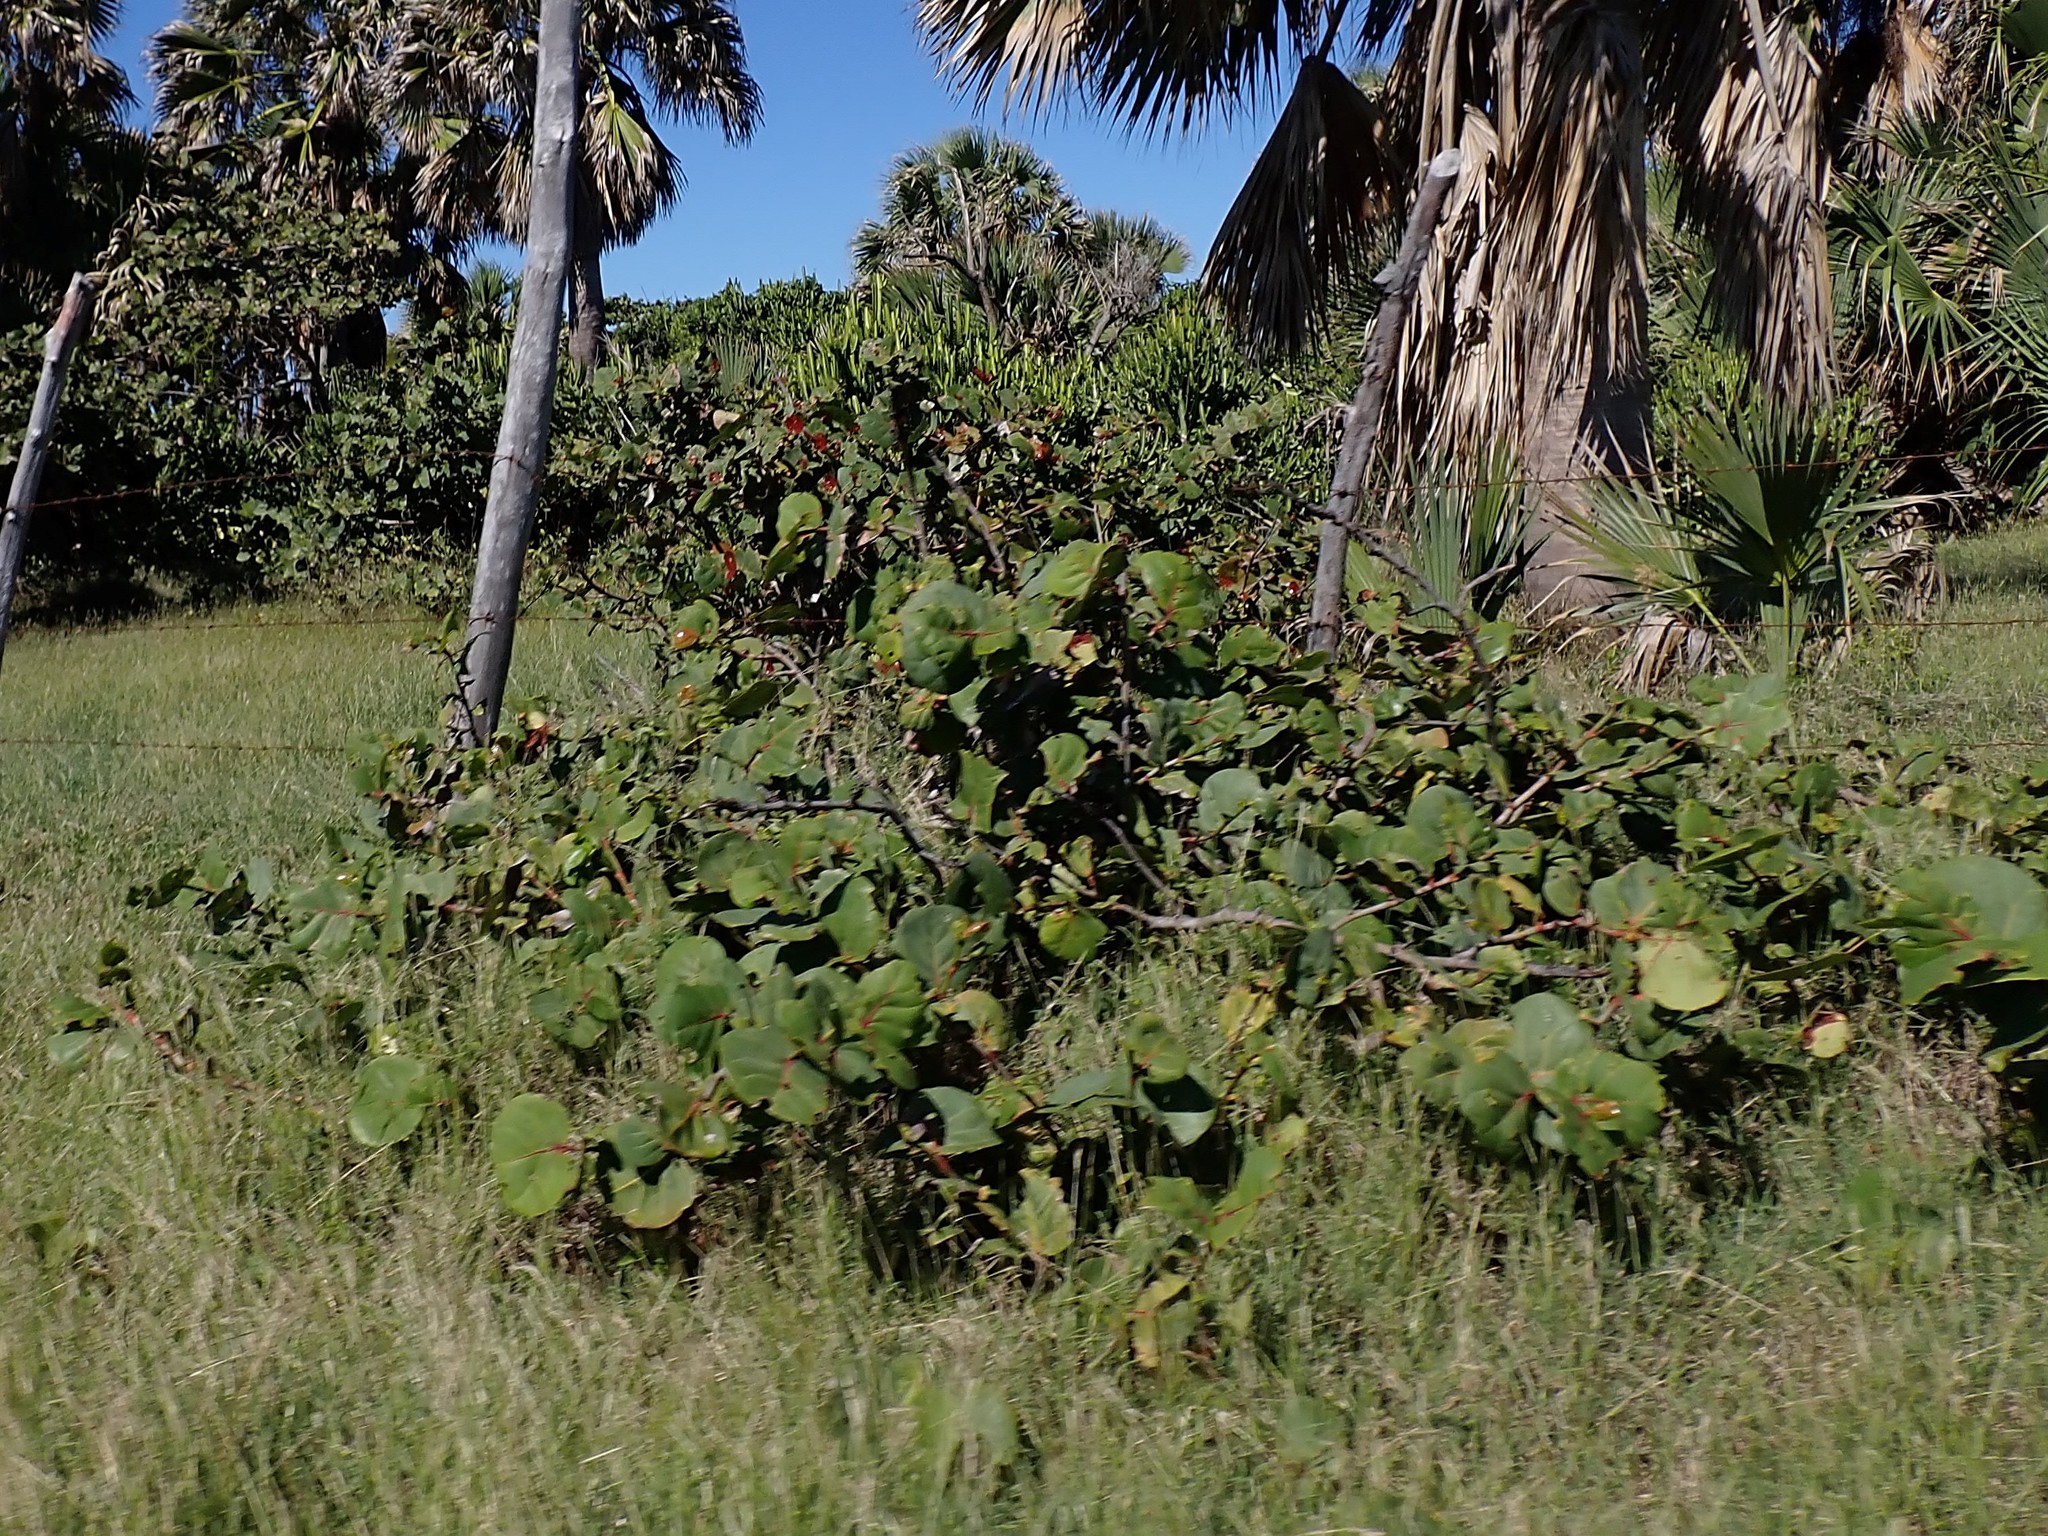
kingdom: Plantae
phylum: Tracheophyta
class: Magnoliopsida
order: Caryophyllales
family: Polygonaceae
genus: Coccoloba
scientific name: Coccoloba uvifera
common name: Seagrape
